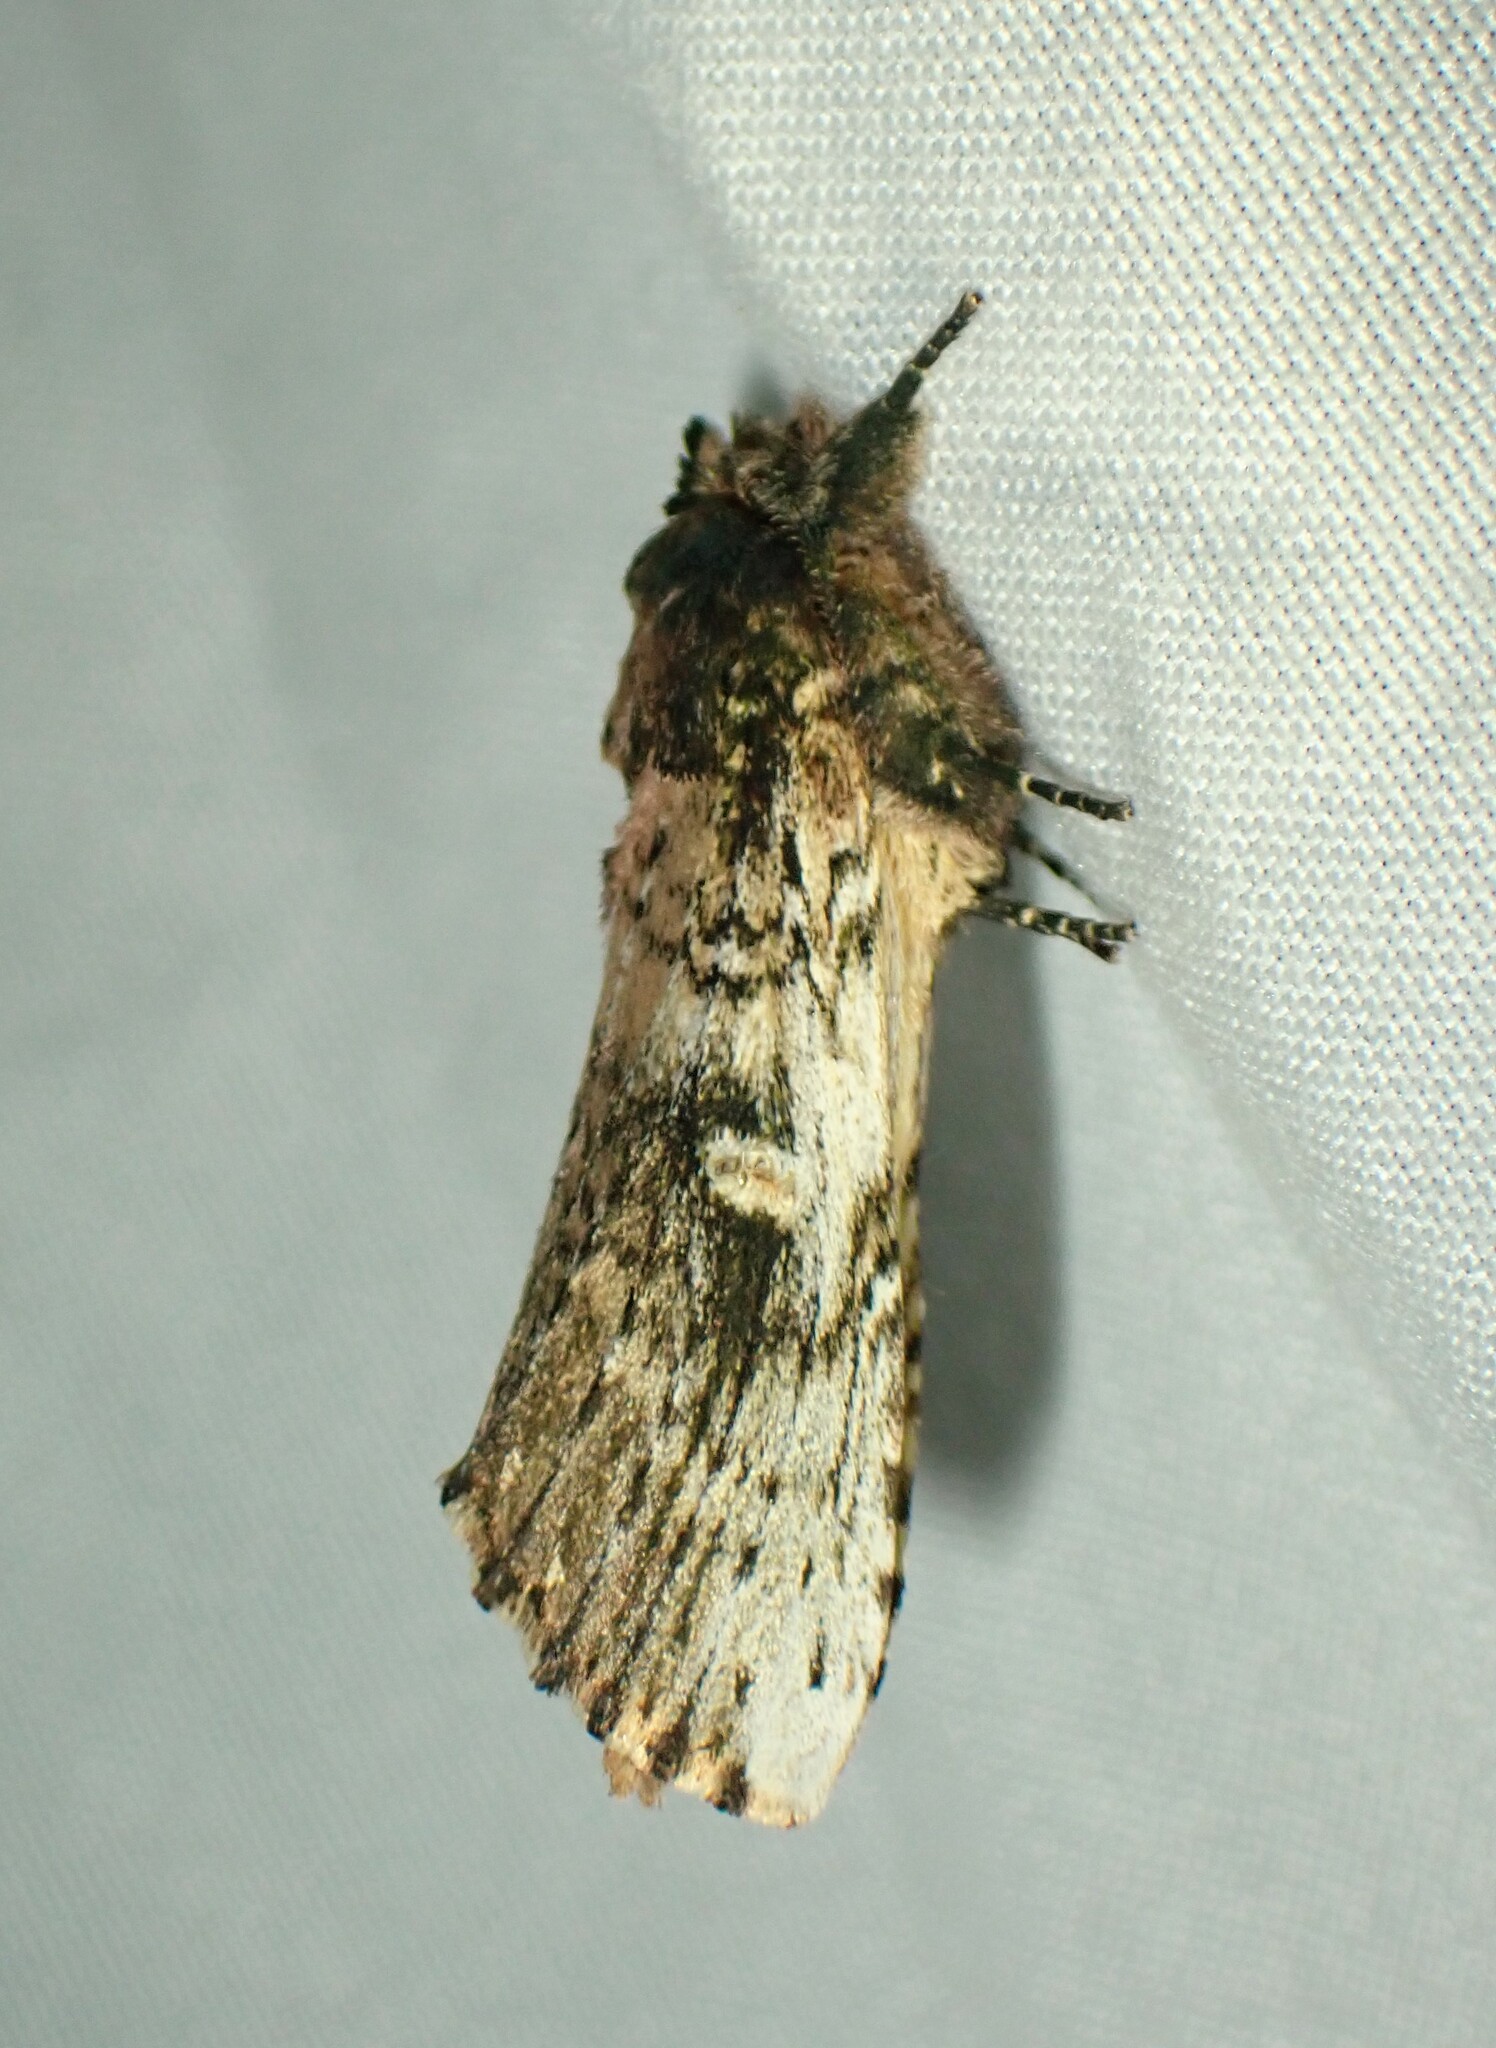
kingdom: Animalia
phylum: Arthropoda
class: Insecta
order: Lepidoptera
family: Notodontidae
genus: Schizura
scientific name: Schizura ipomaeae
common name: Morning-glory prominent
